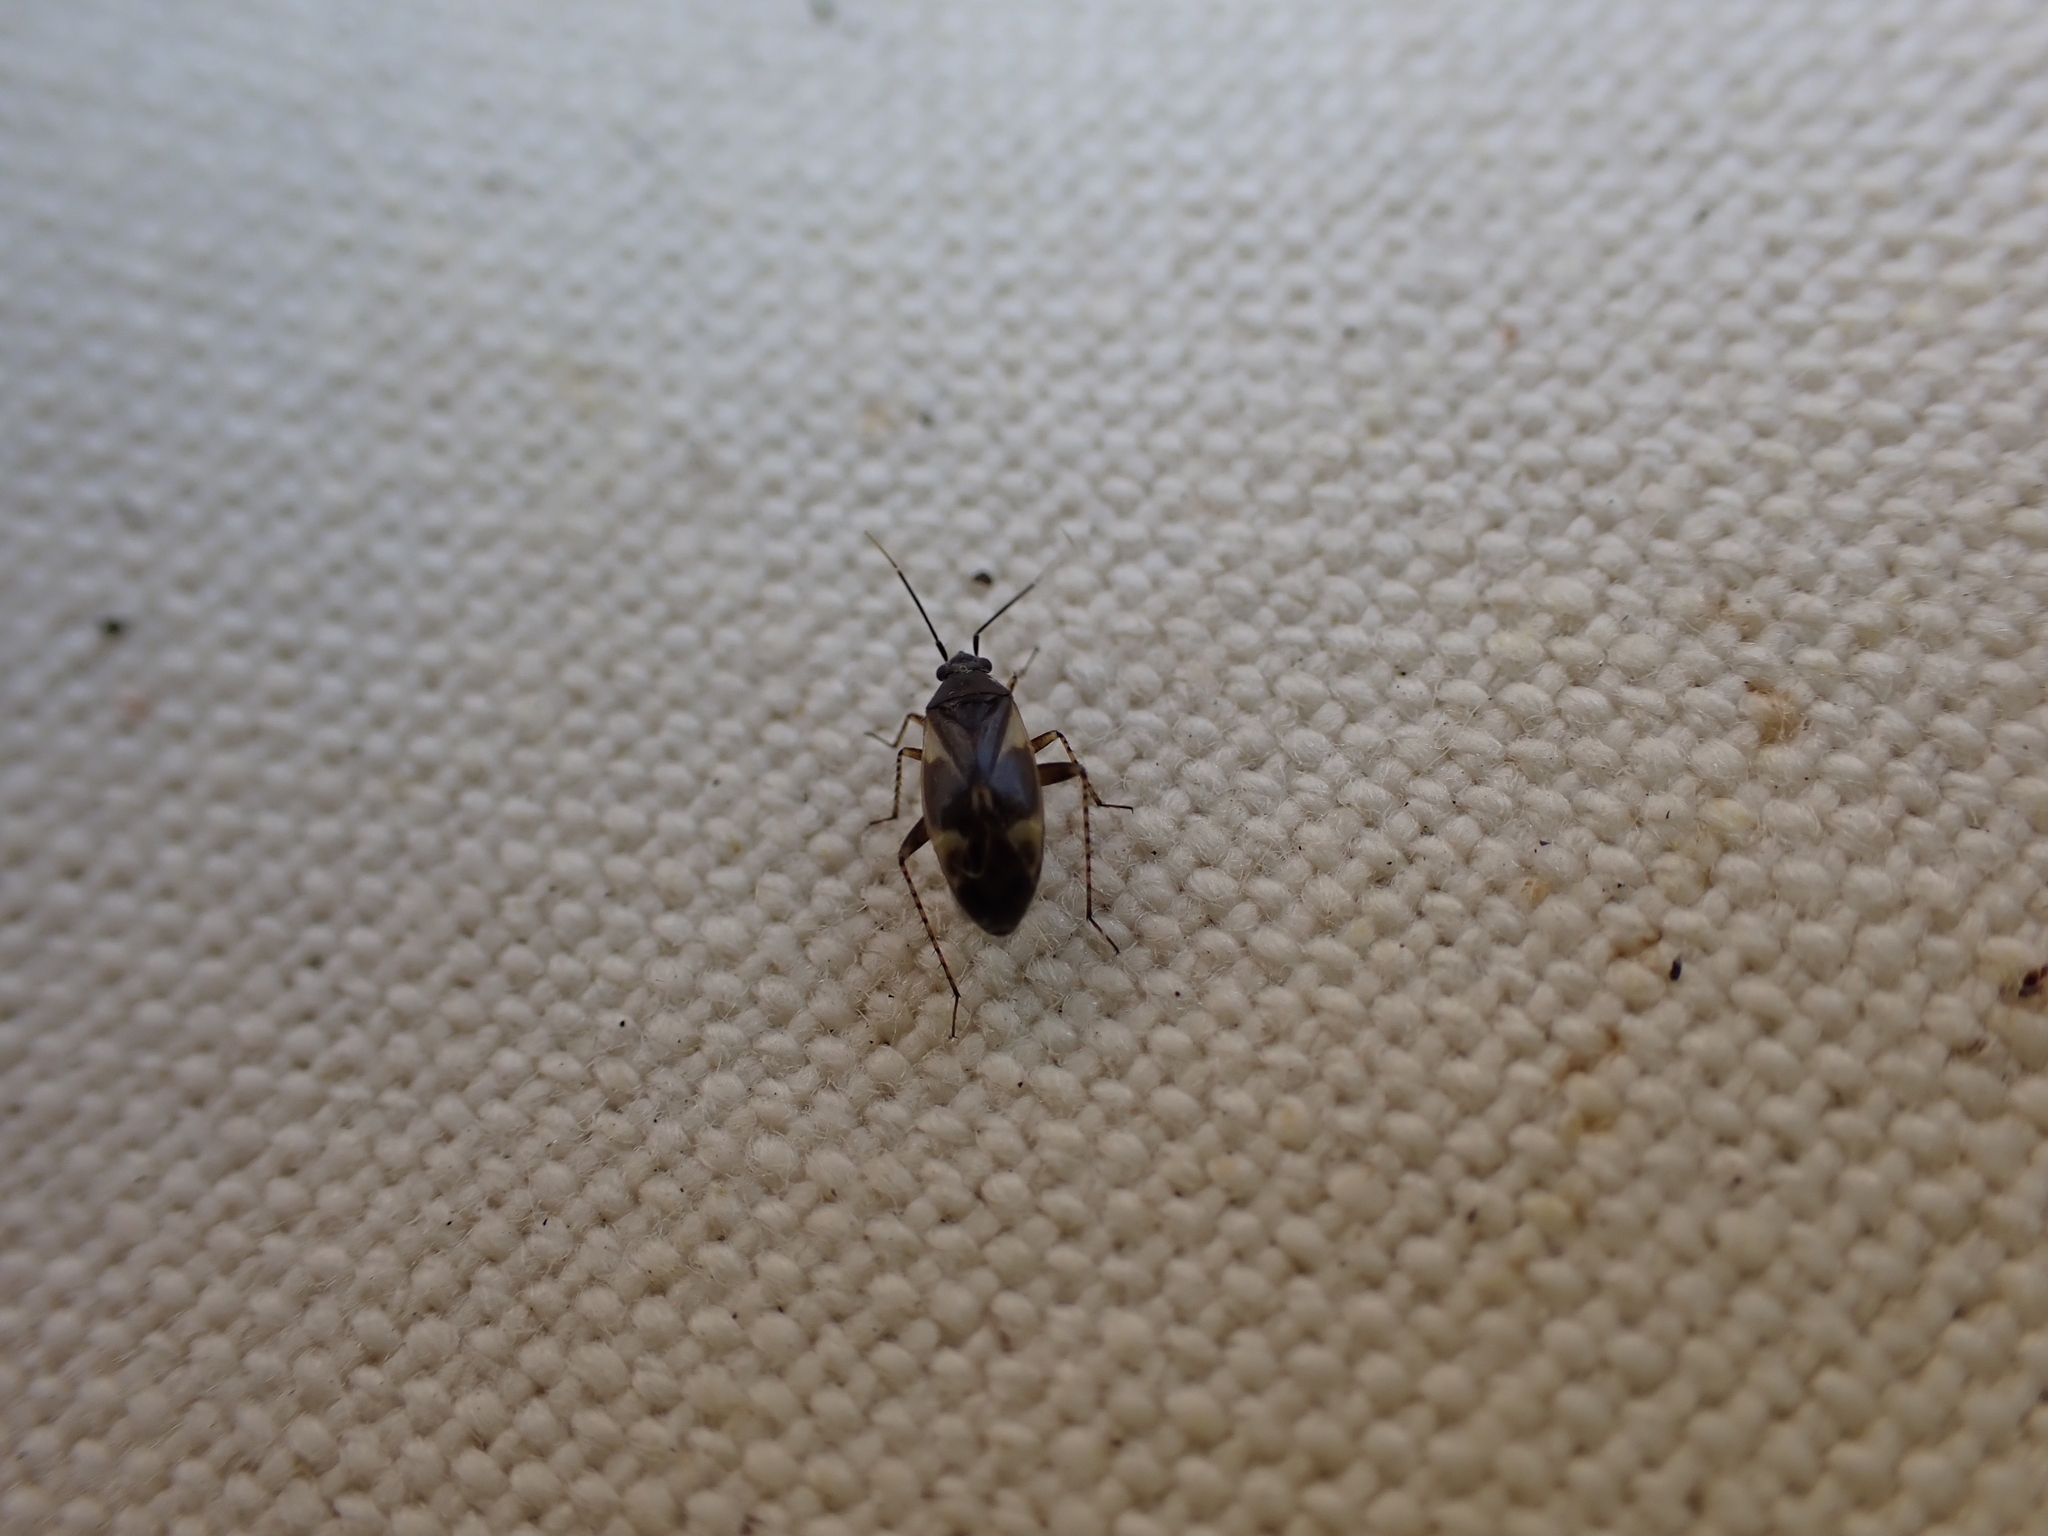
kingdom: Animalia
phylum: Arthropoda
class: Insecta
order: Hemiptera
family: Miridae
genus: Plagiognathus
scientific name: Plagiognathus obscurus
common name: Obscure plant bug
